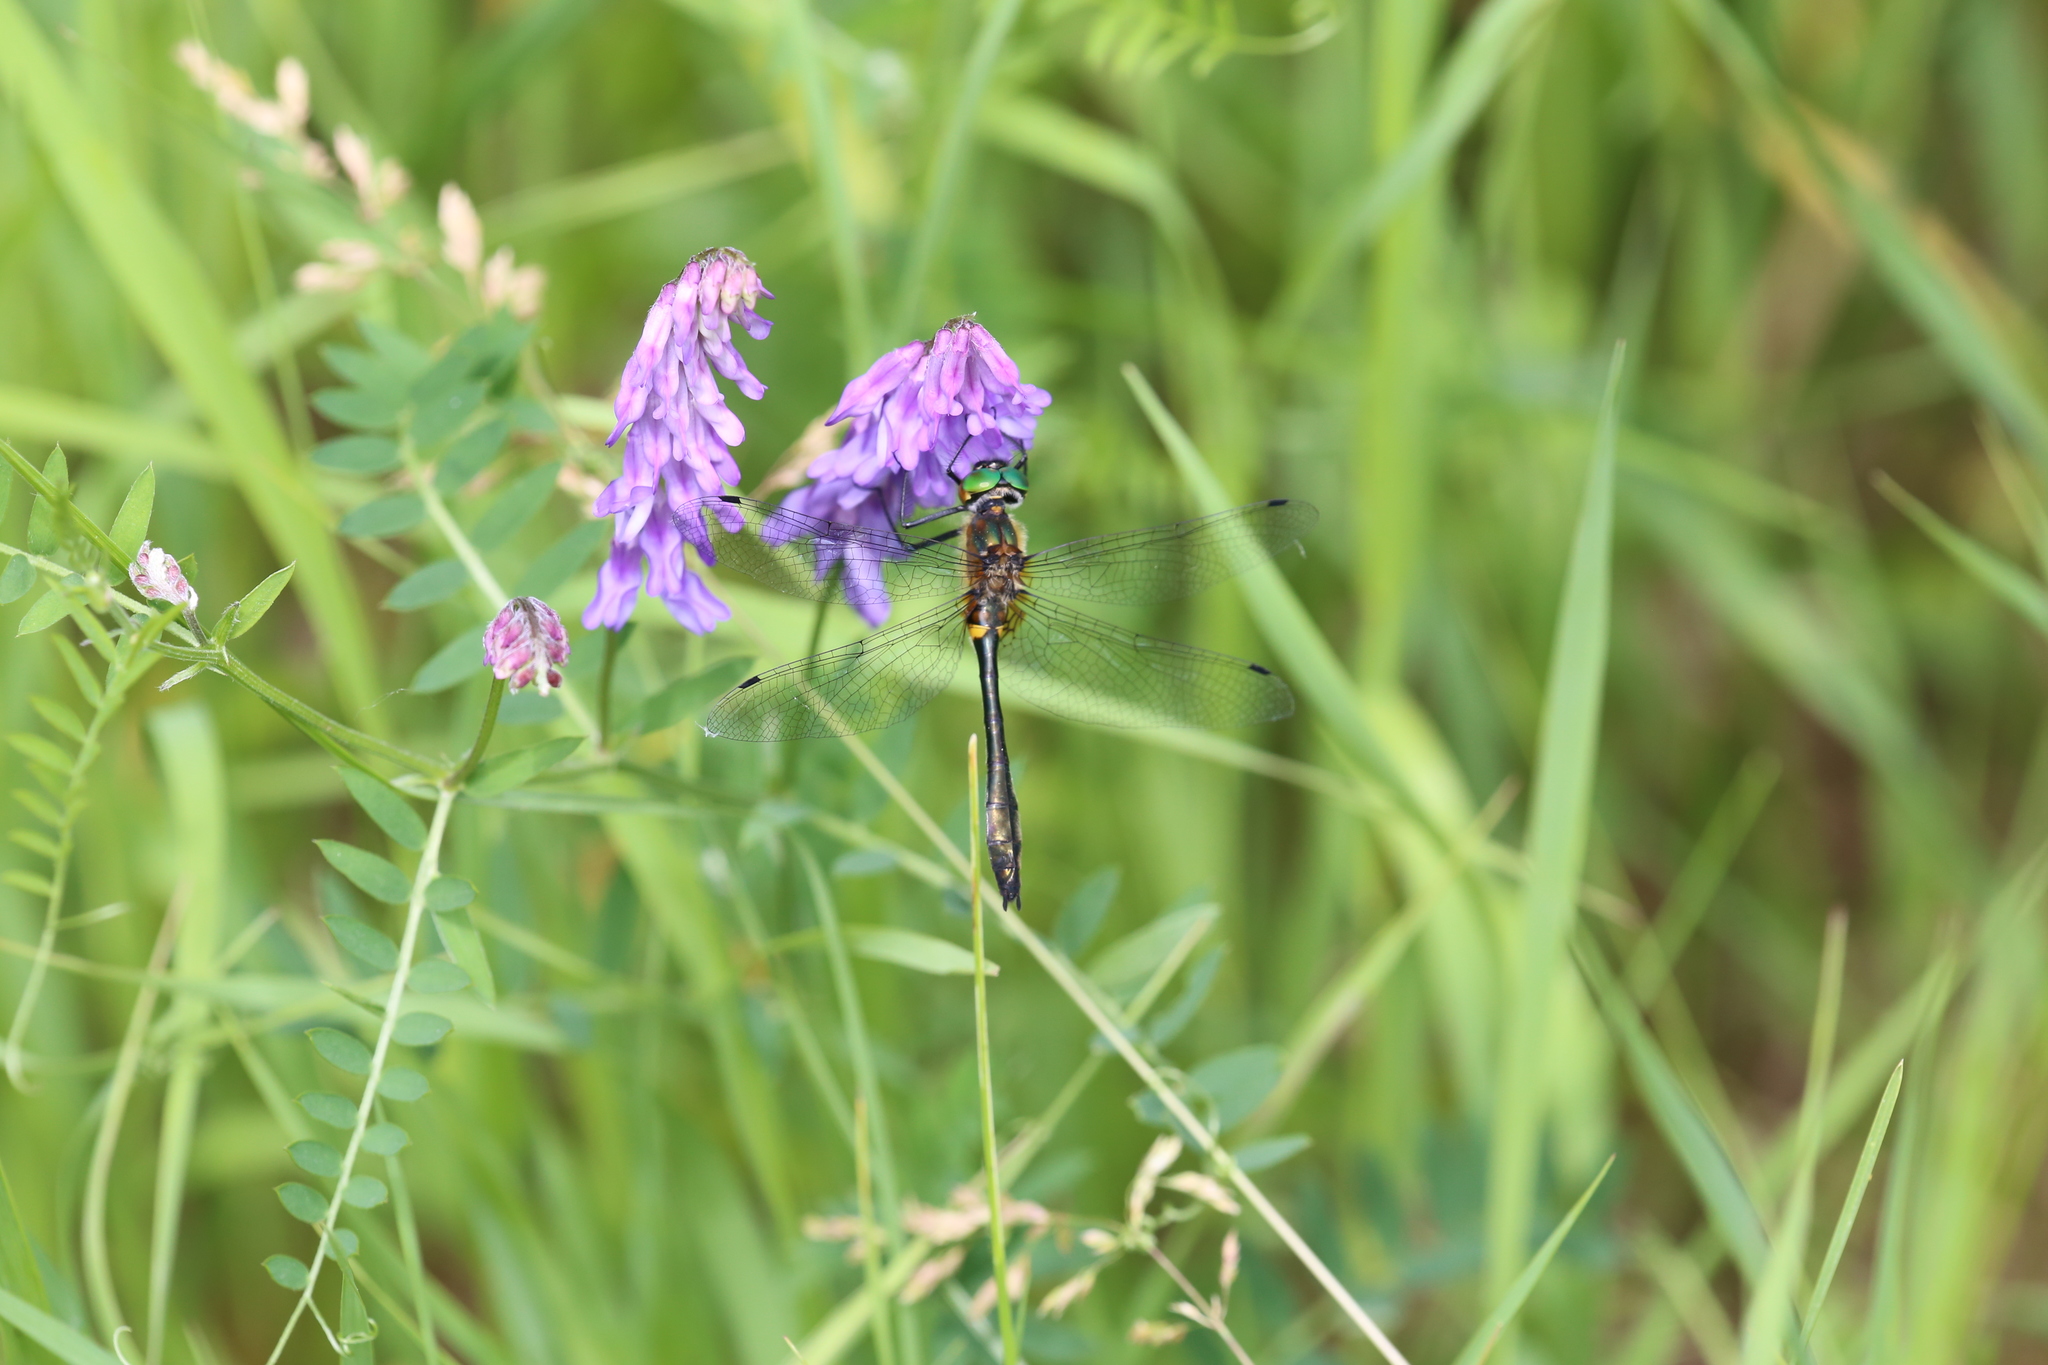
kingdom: Animalia
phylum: Arthropoda
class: Insecta
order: Odonata
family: Corduliidae
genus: Dorocordulia
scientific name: Dorocordulia libera
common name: Racket-tailed emerald
